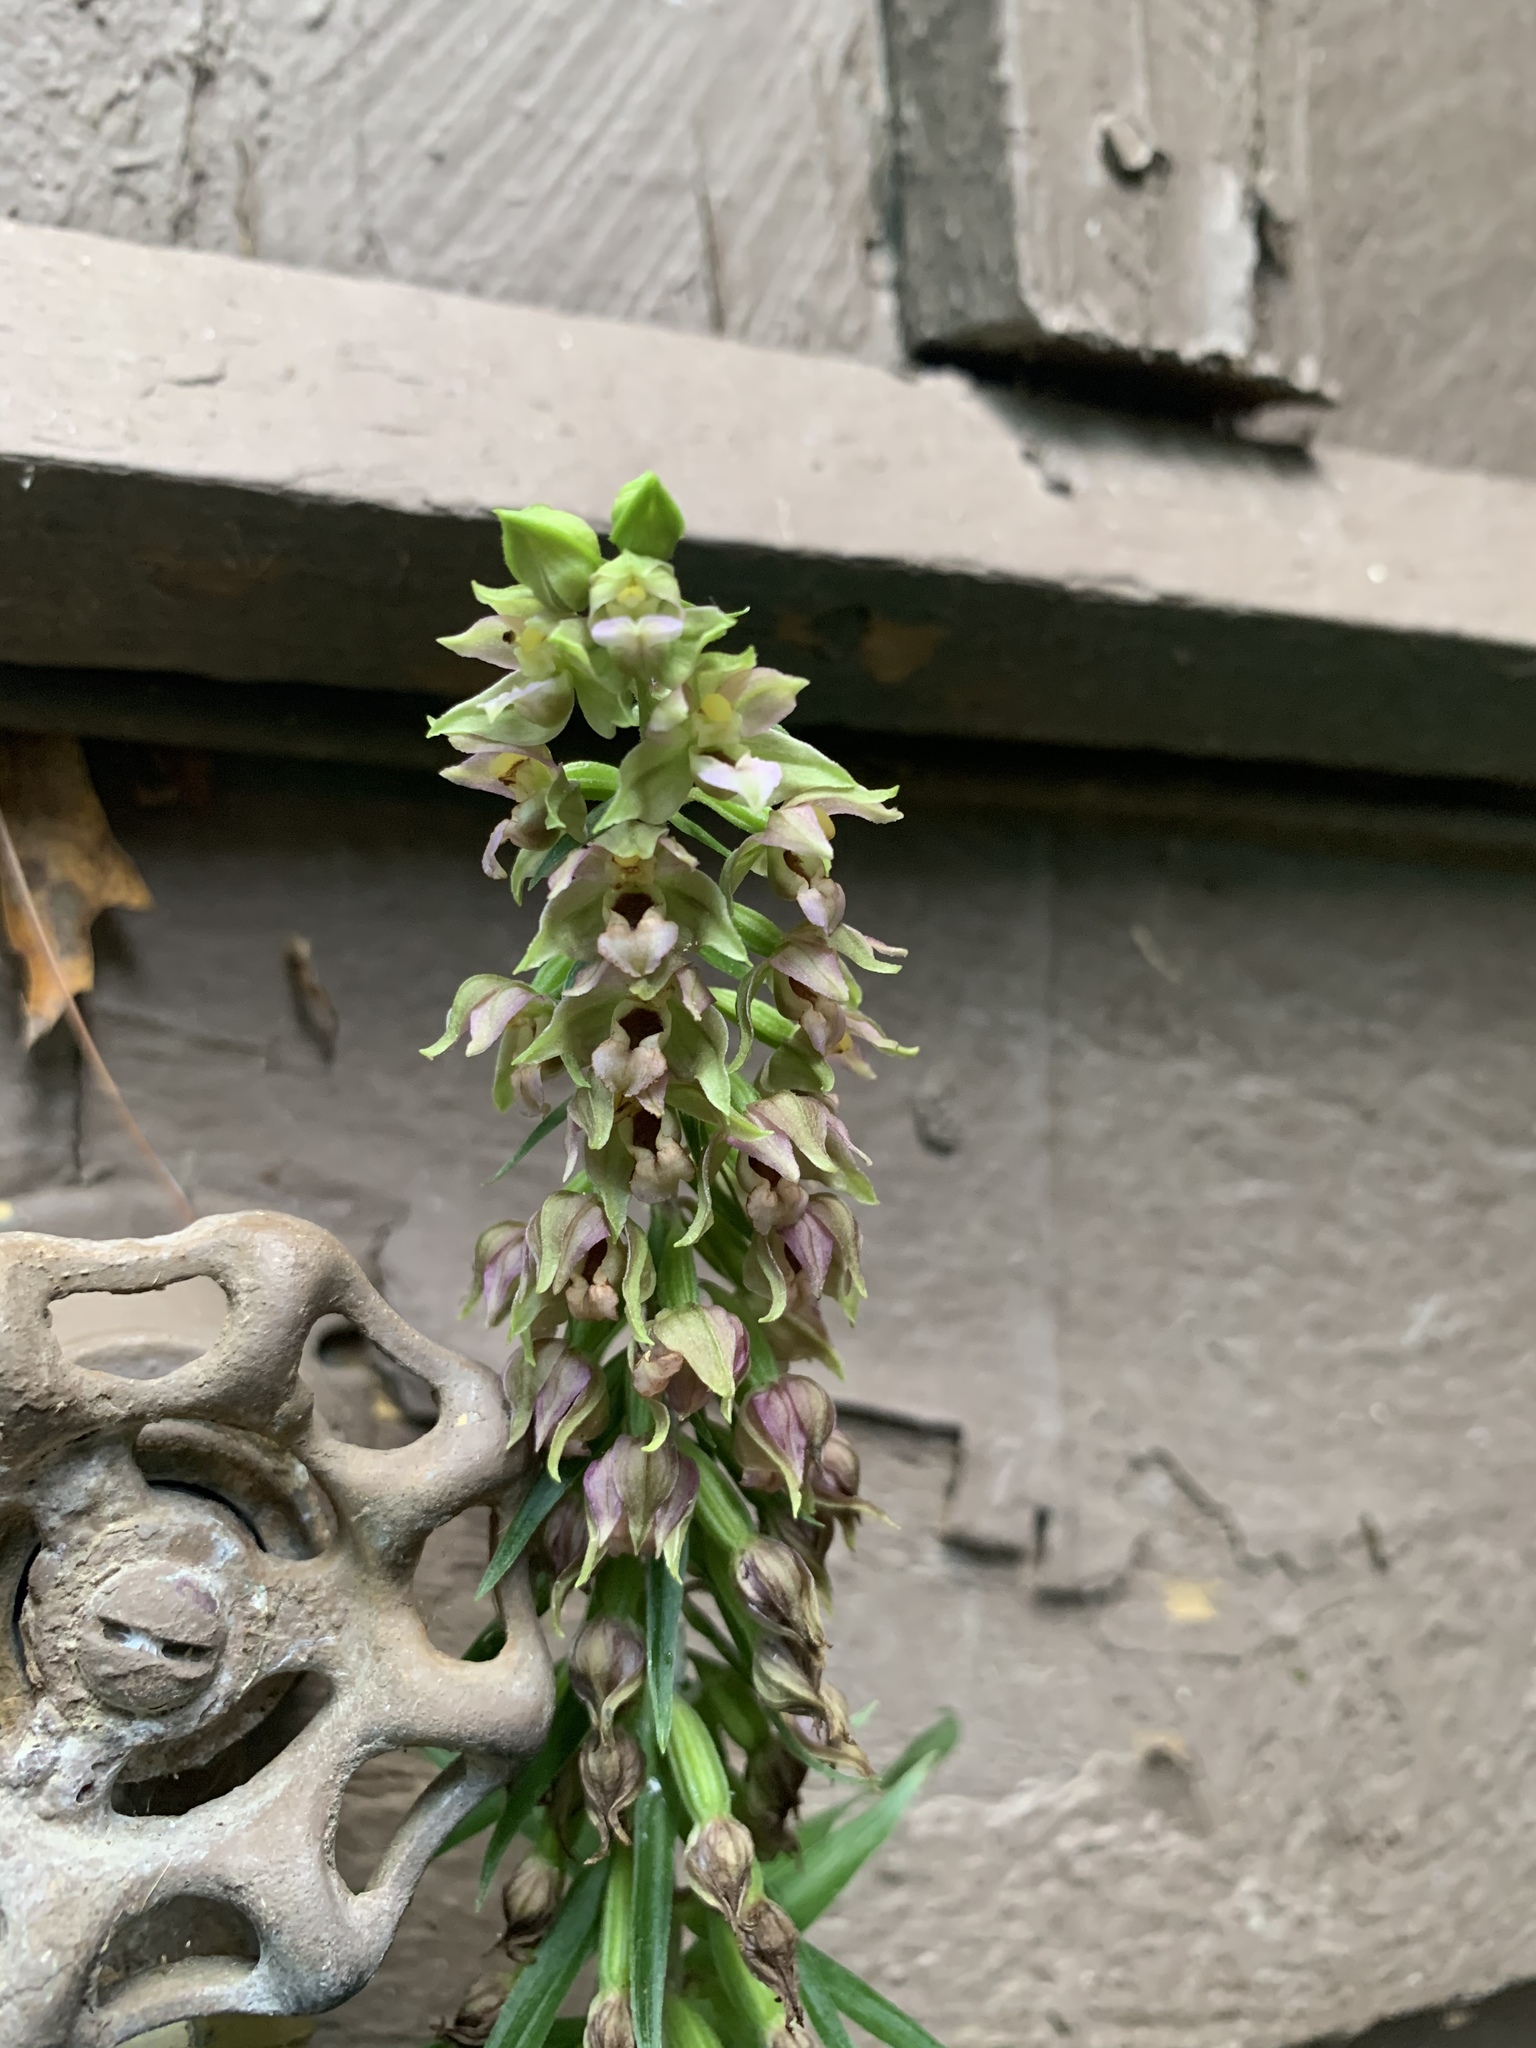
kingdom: Plantae
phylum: Tracheophyta
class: Liliopsida
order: Asparagales
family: Orchidaceae
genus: Epipactis
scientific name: Epipactis helleborine
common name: Broad-leaved helleborine
